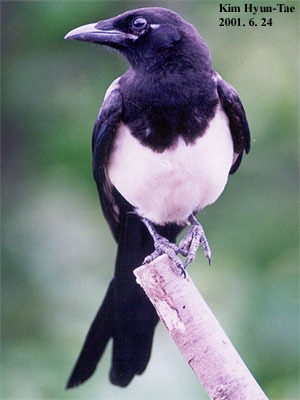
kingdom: Animalia
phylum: Chordata
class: Aves
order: Passeriformes
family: Corvidae
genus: Pica
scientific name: Pica serica
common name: Oriental magpie
